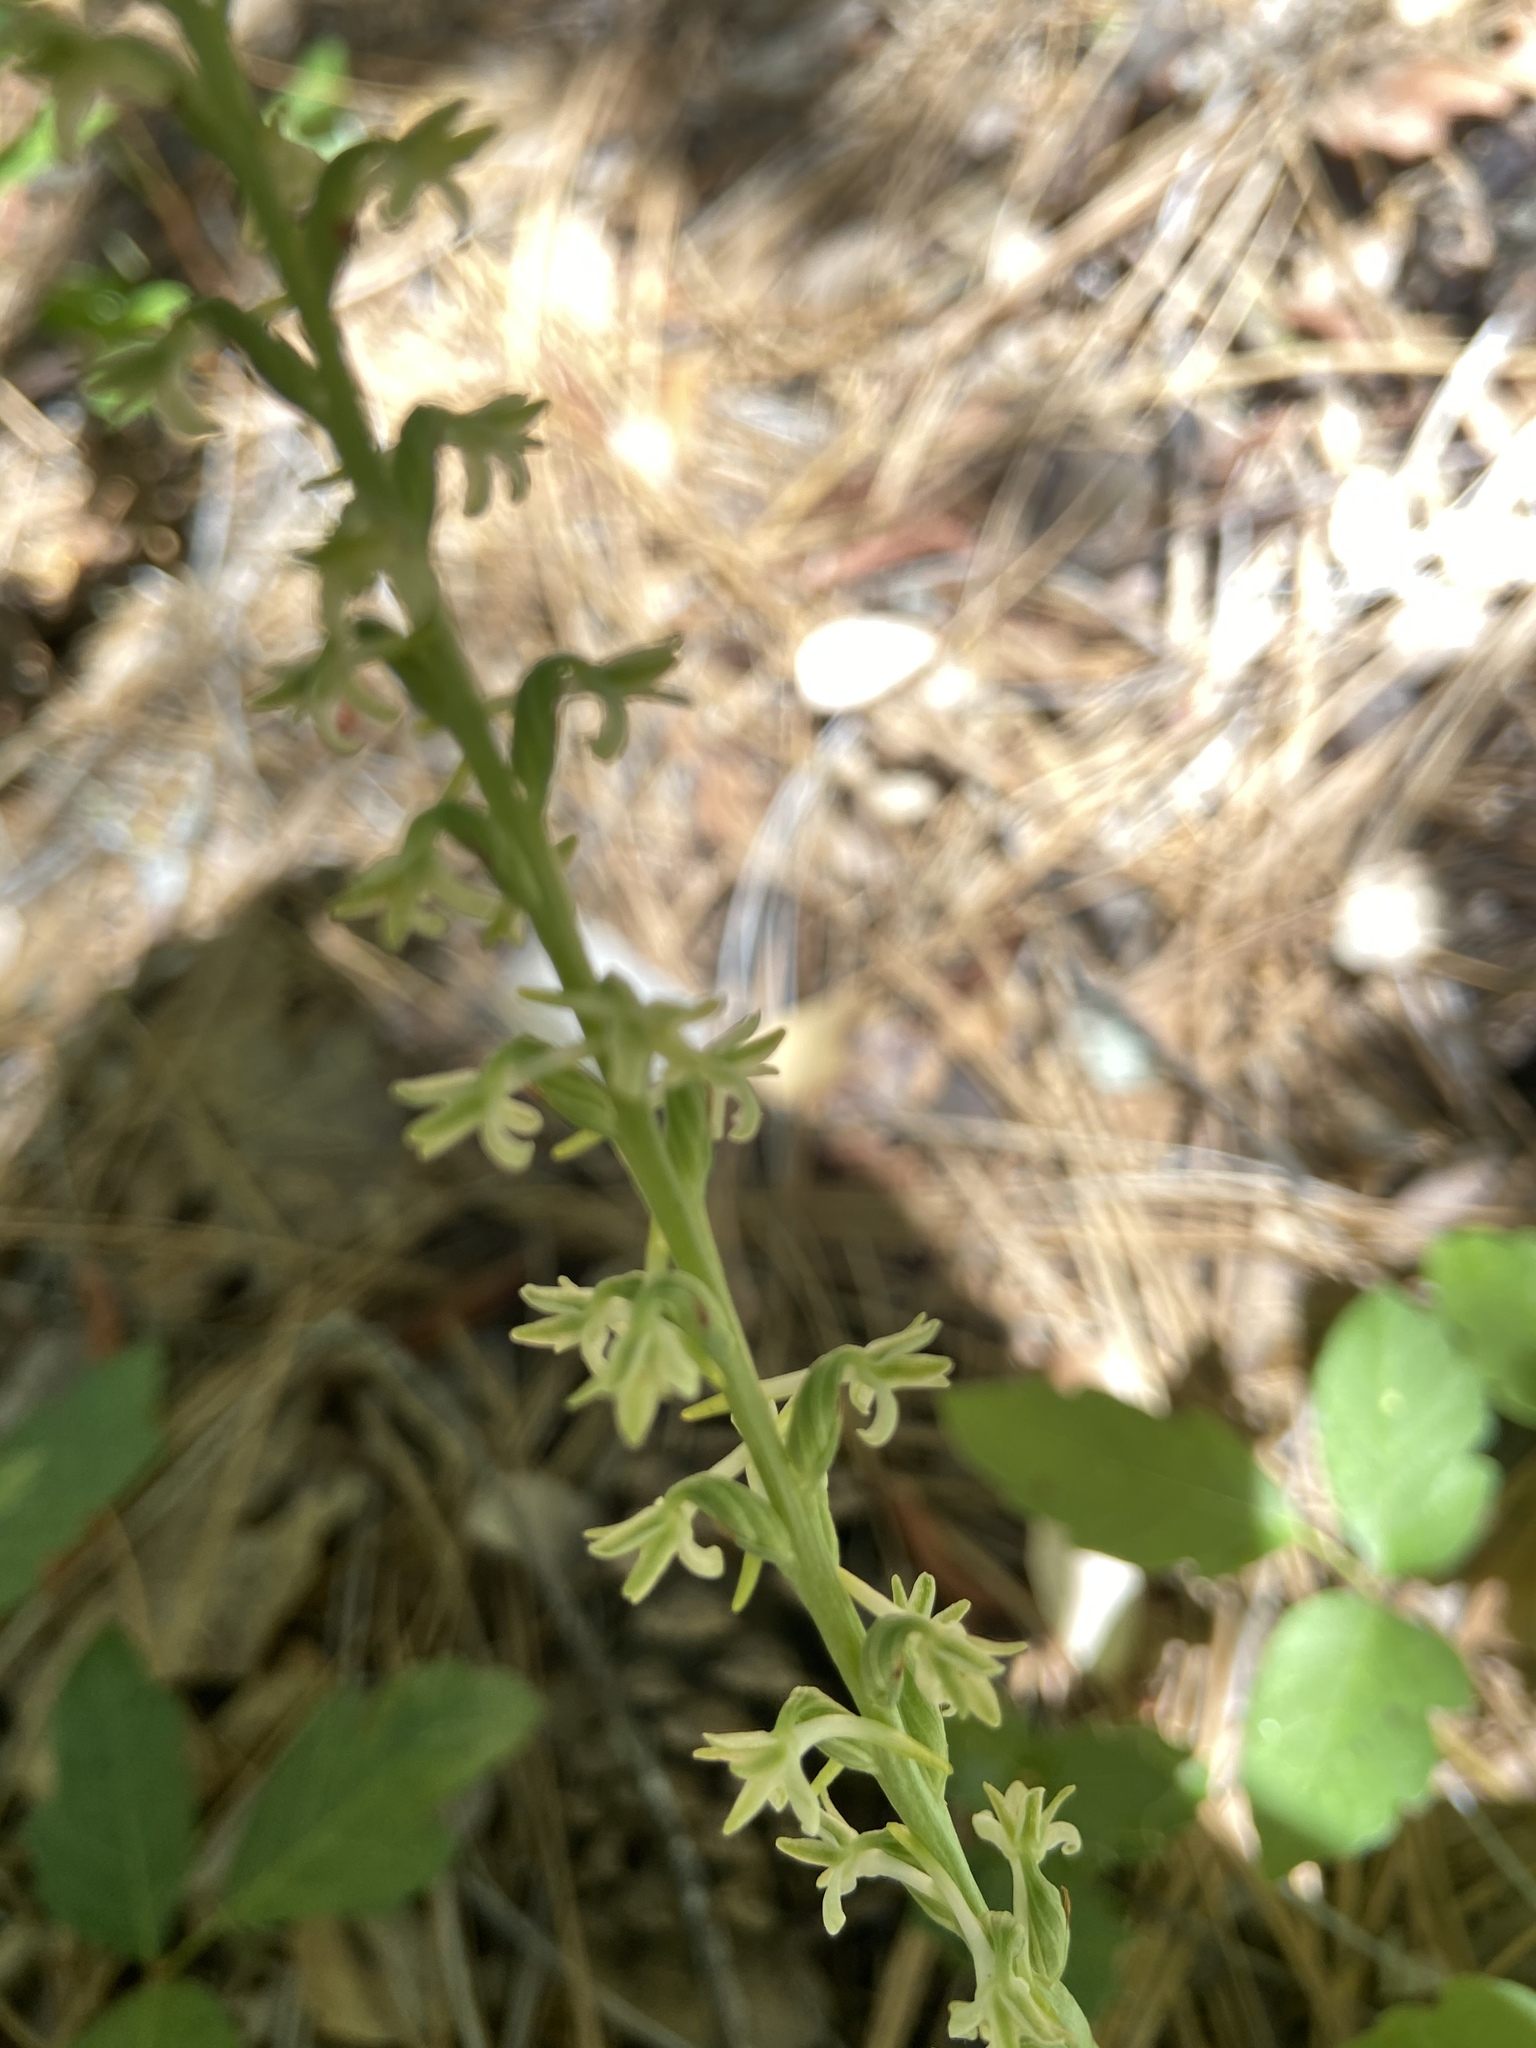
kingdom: Plantae
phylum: Tracheophyta
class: Liliopsida
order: Asparagales
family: Orchidaceae
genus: Platanthera
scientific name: Platanthera transversa
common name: Royal rein orchid
